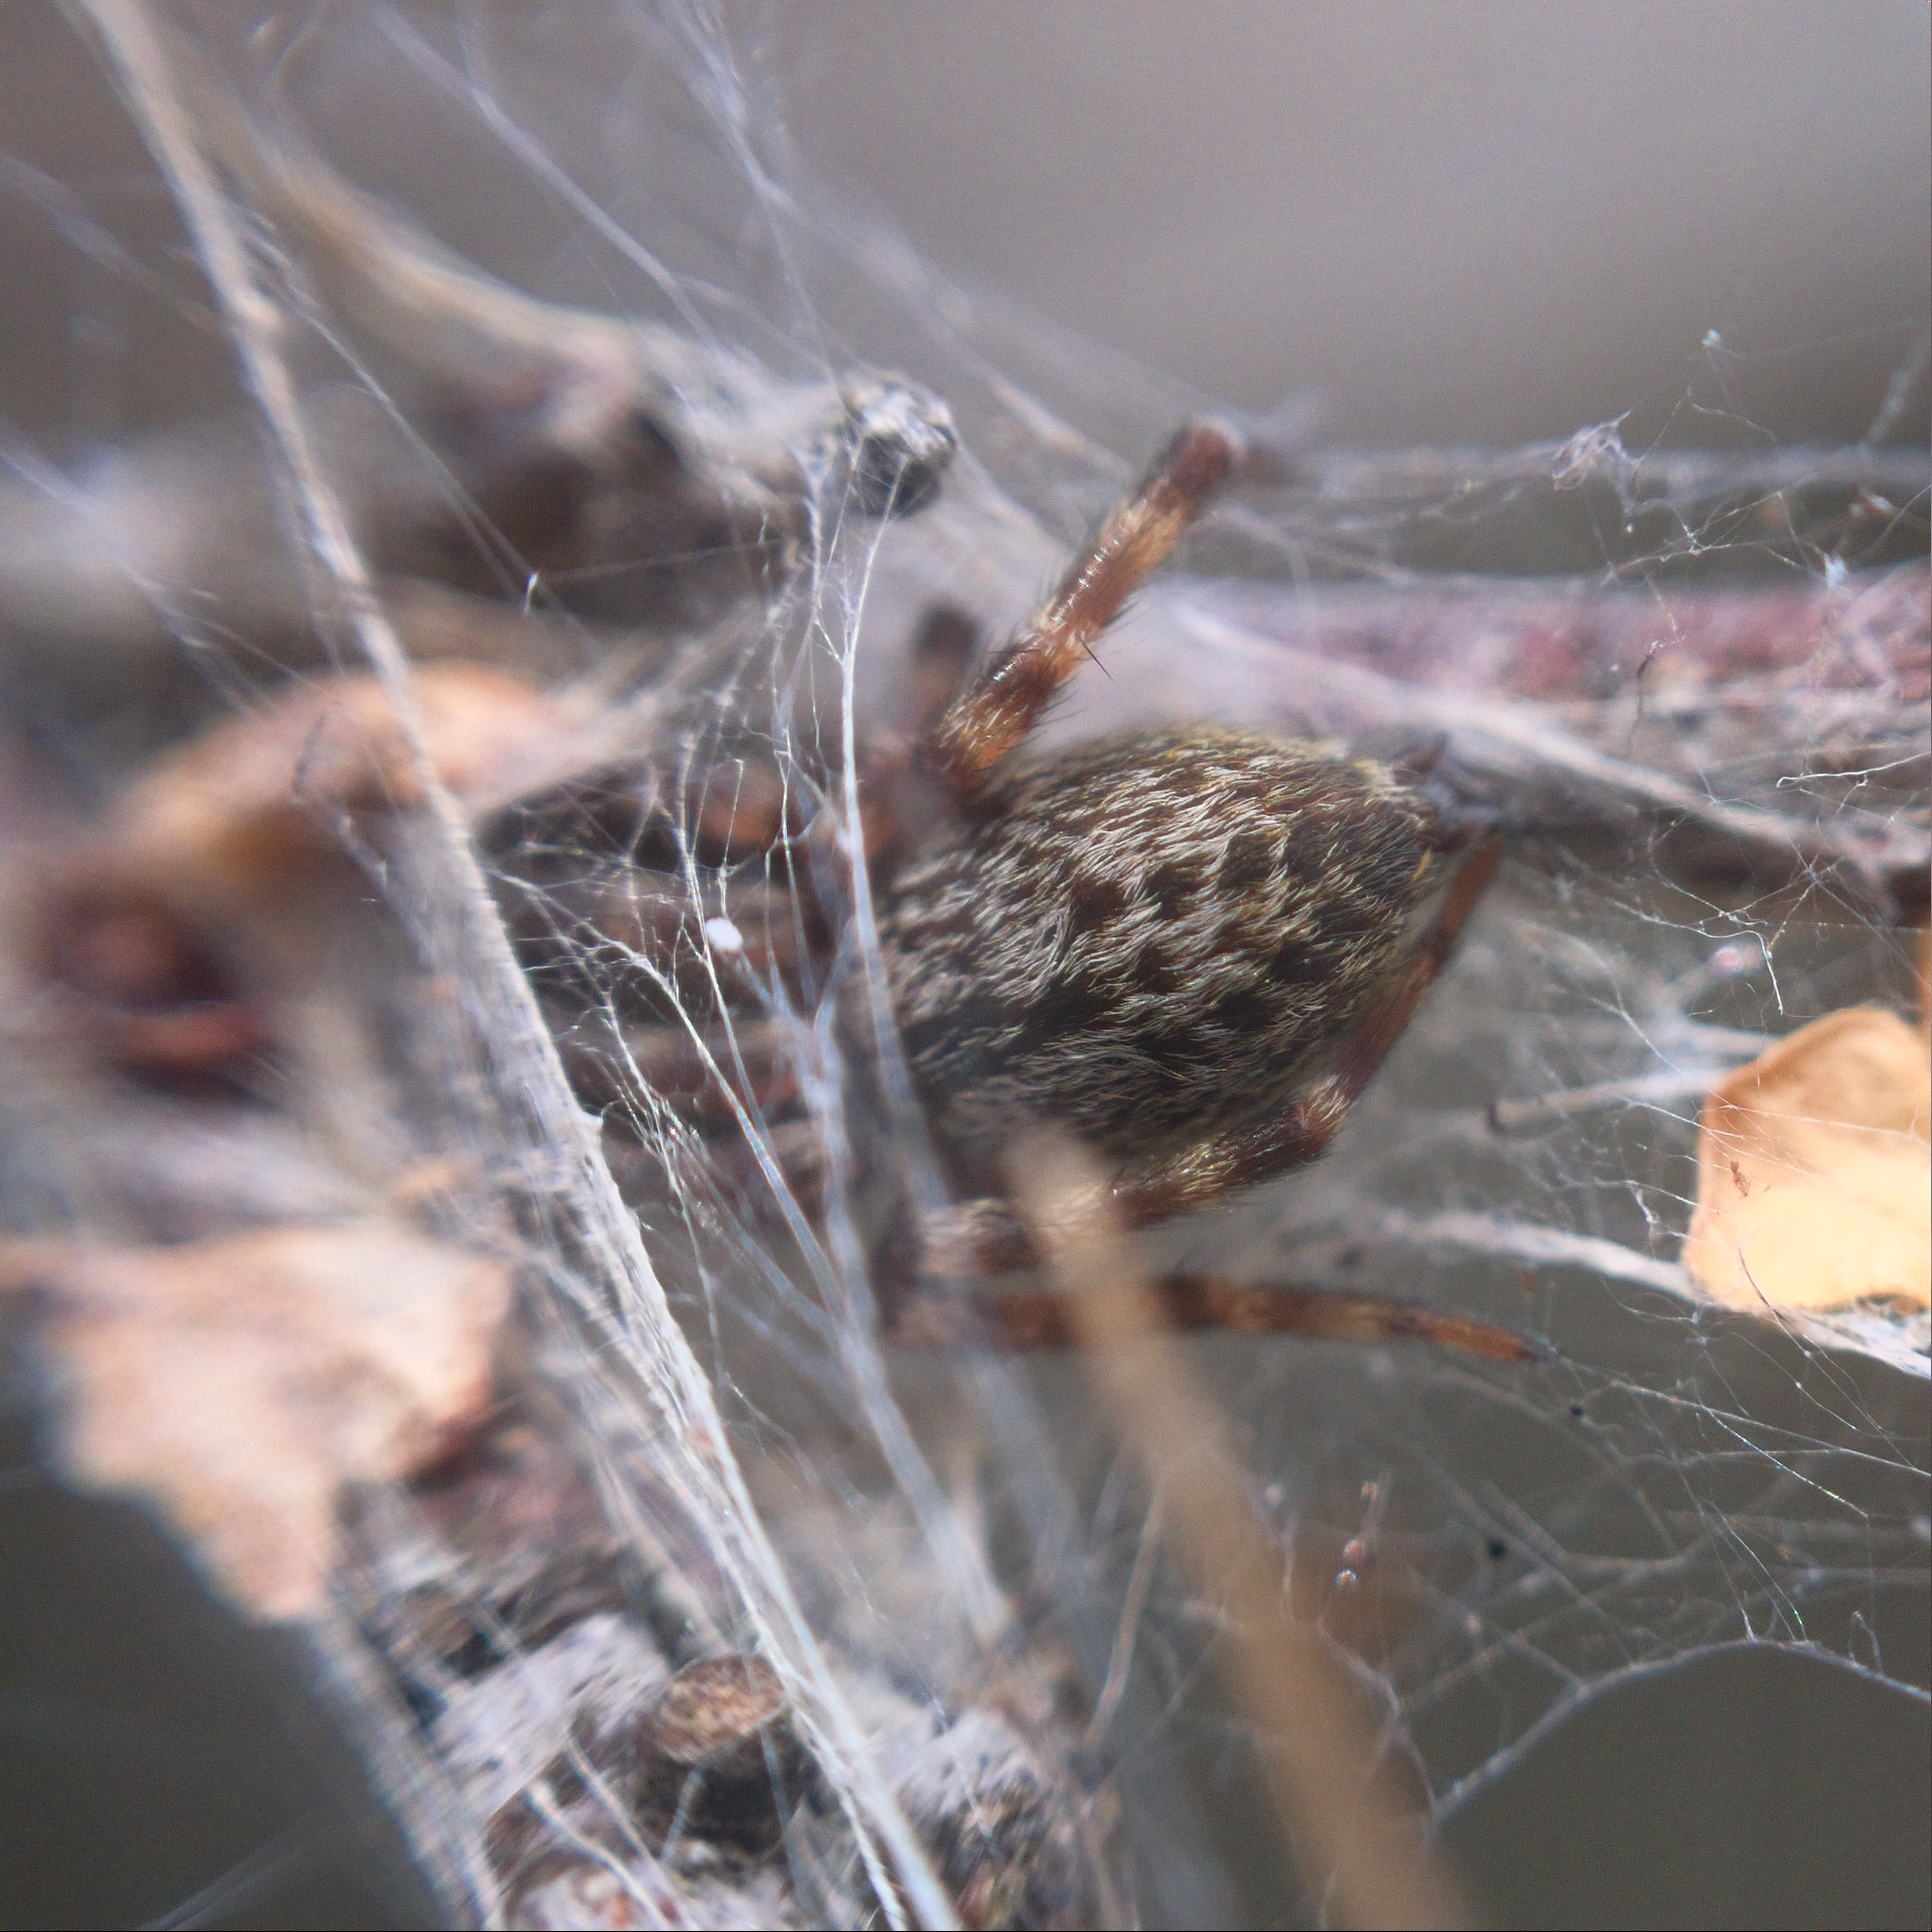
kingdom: Animalia
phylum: Arthropoda
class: Arachnida
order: Araneae
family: Desidae
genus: Badumna
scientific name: Badumna longinqua
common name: Gray house spider
